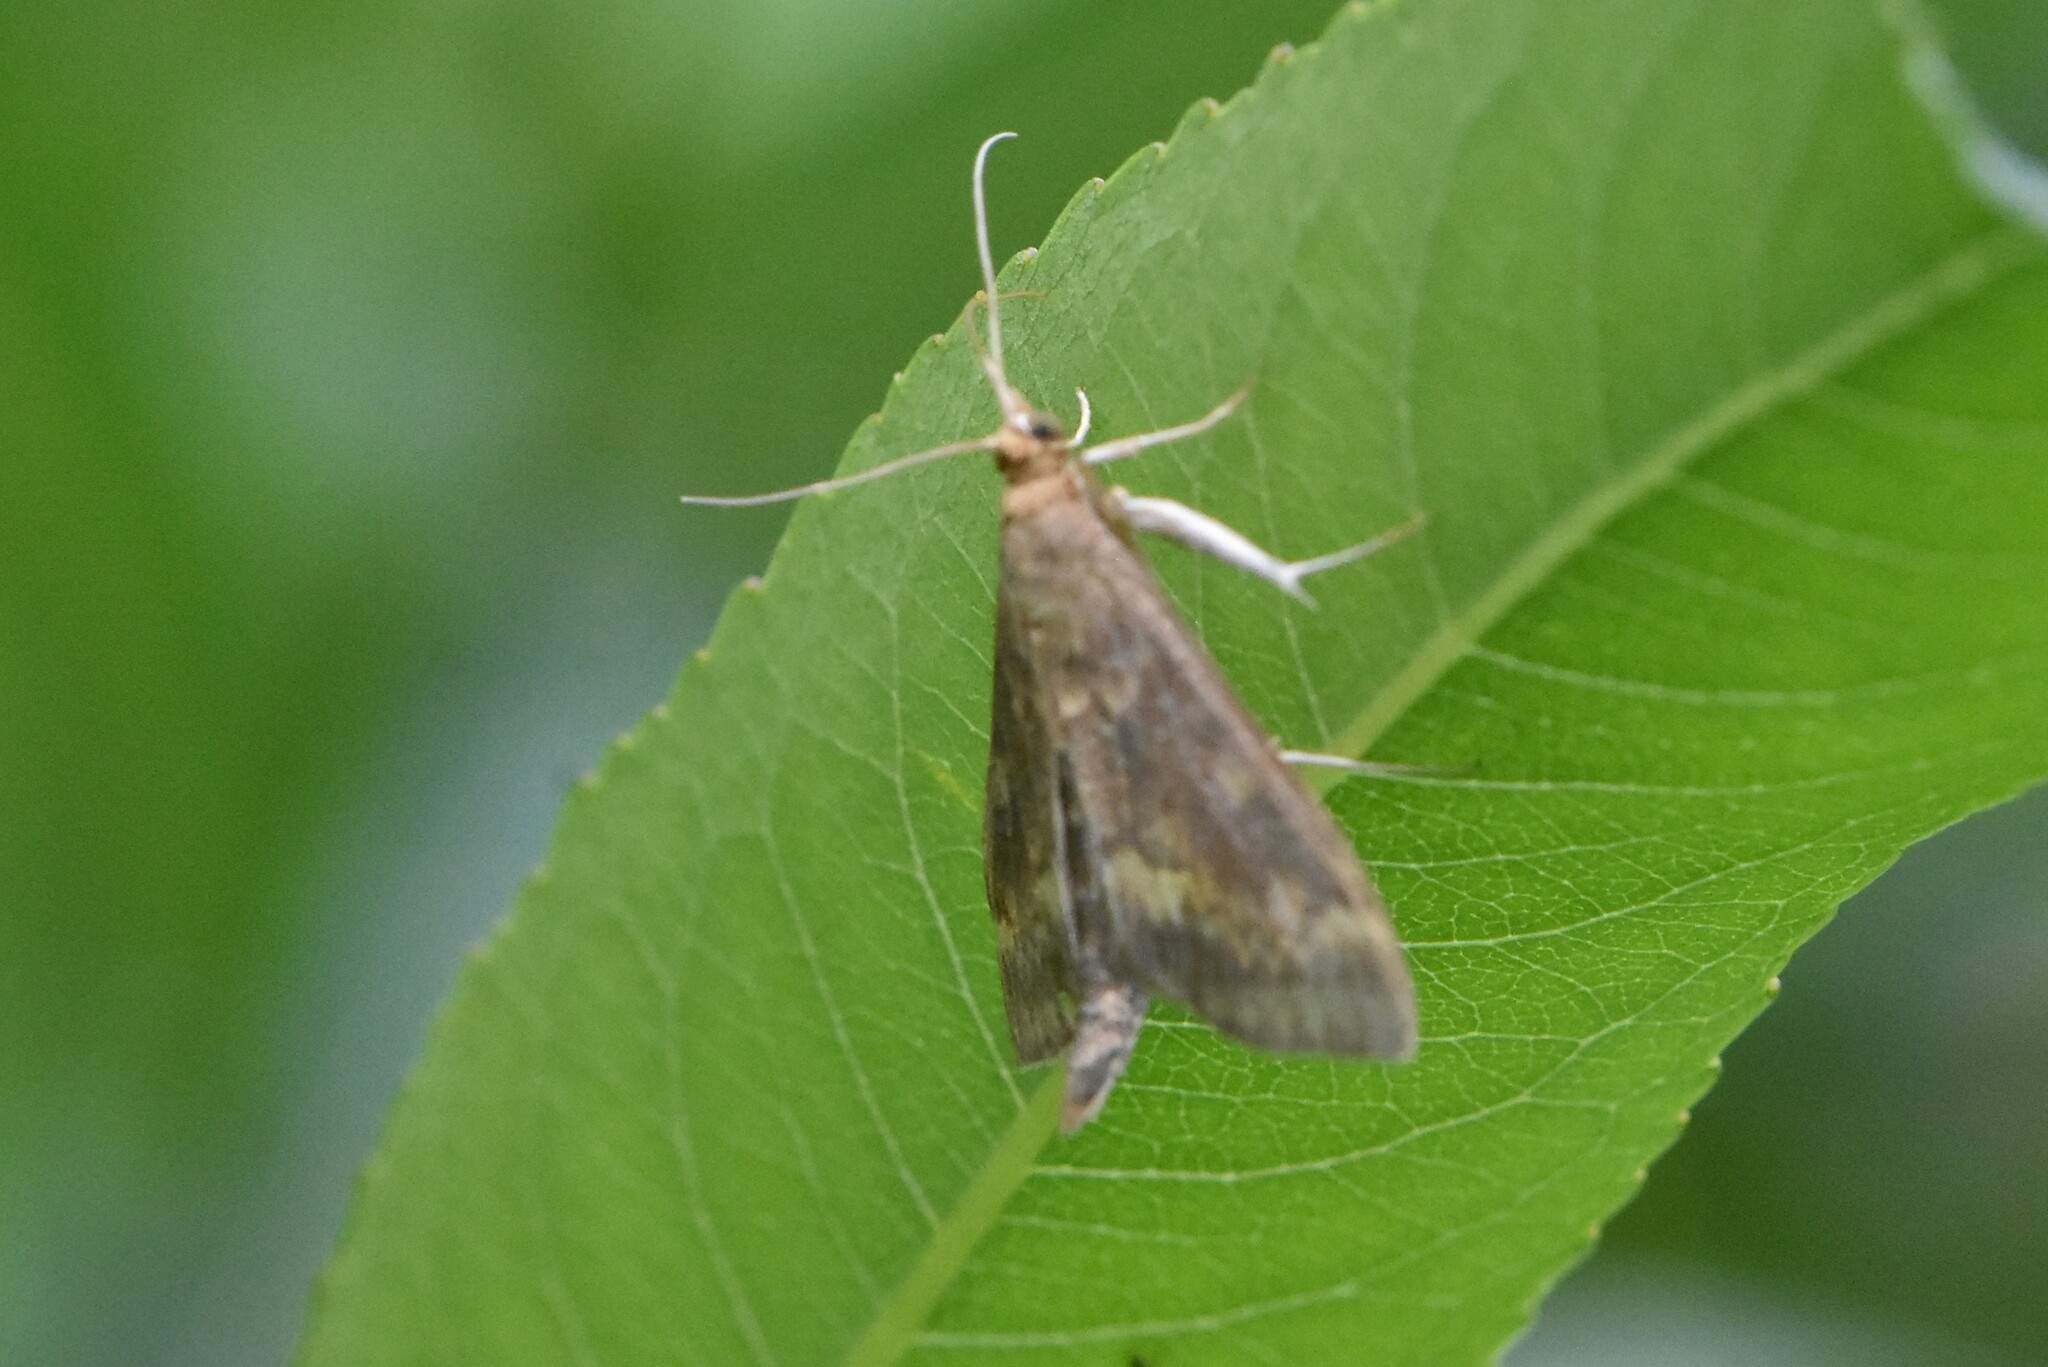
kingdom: Animalia
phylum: Arthropoda
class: Insecta
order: Lepidoptera
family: Crambidae
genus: Ostrinia
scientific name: Ostrinia nubilalis
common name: European corn borer
